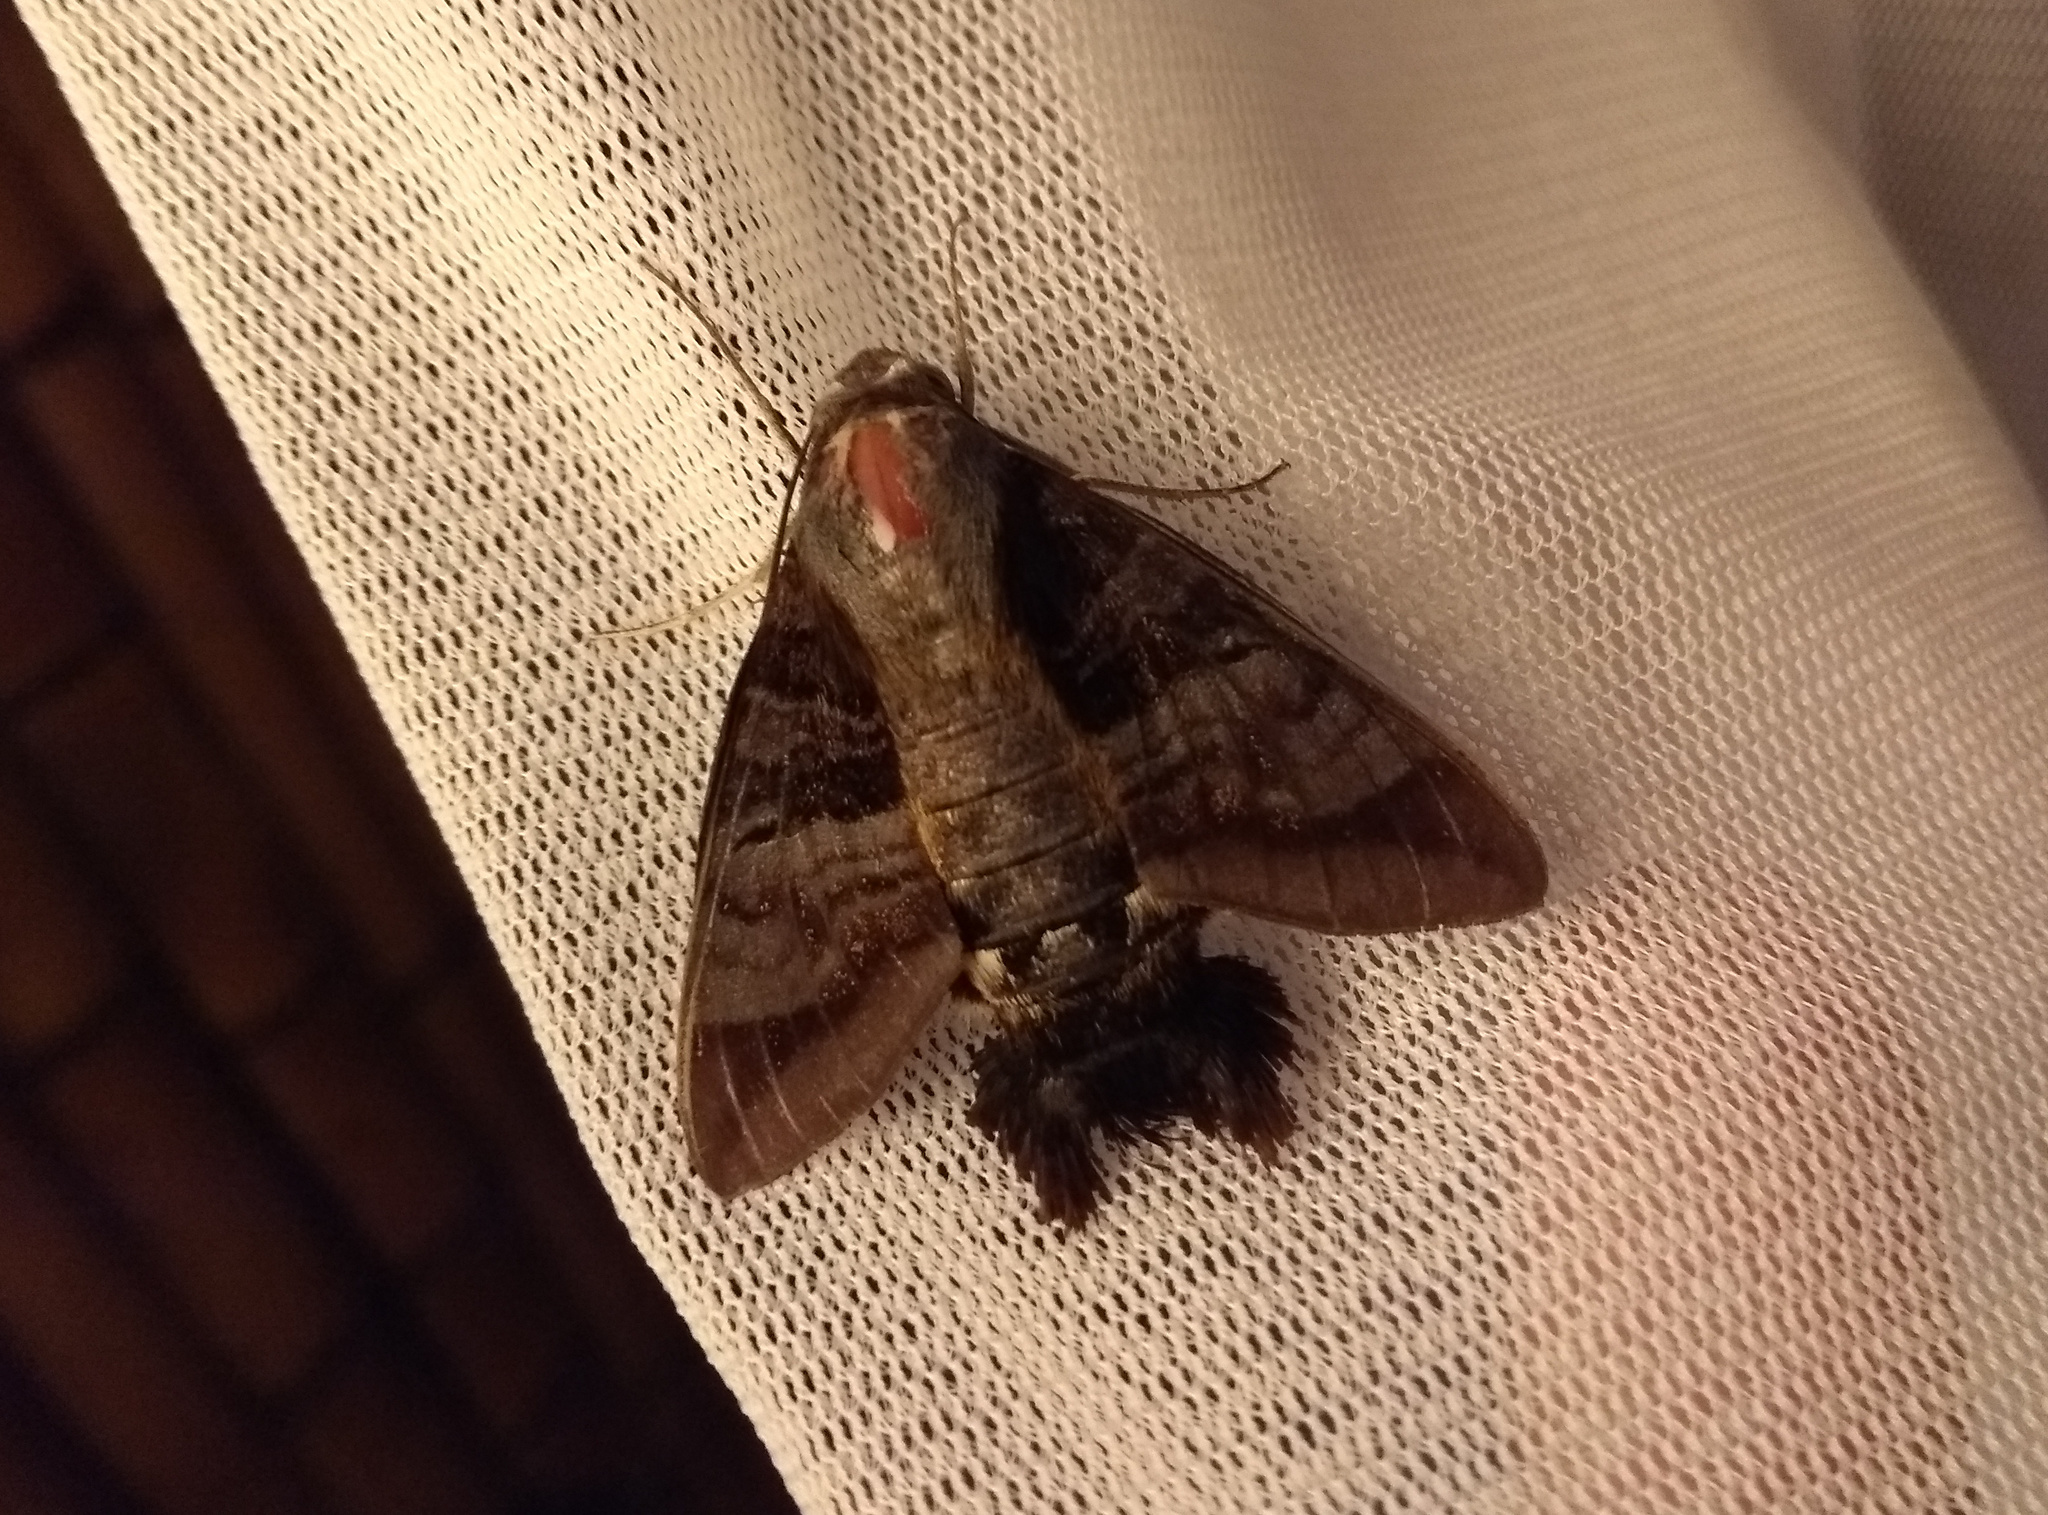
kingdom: Animalia
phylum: Arthropoda
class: Insecta
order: Lepidoptera
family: Sphingidae
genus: Aellopos
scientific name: Aellopos ceculus
